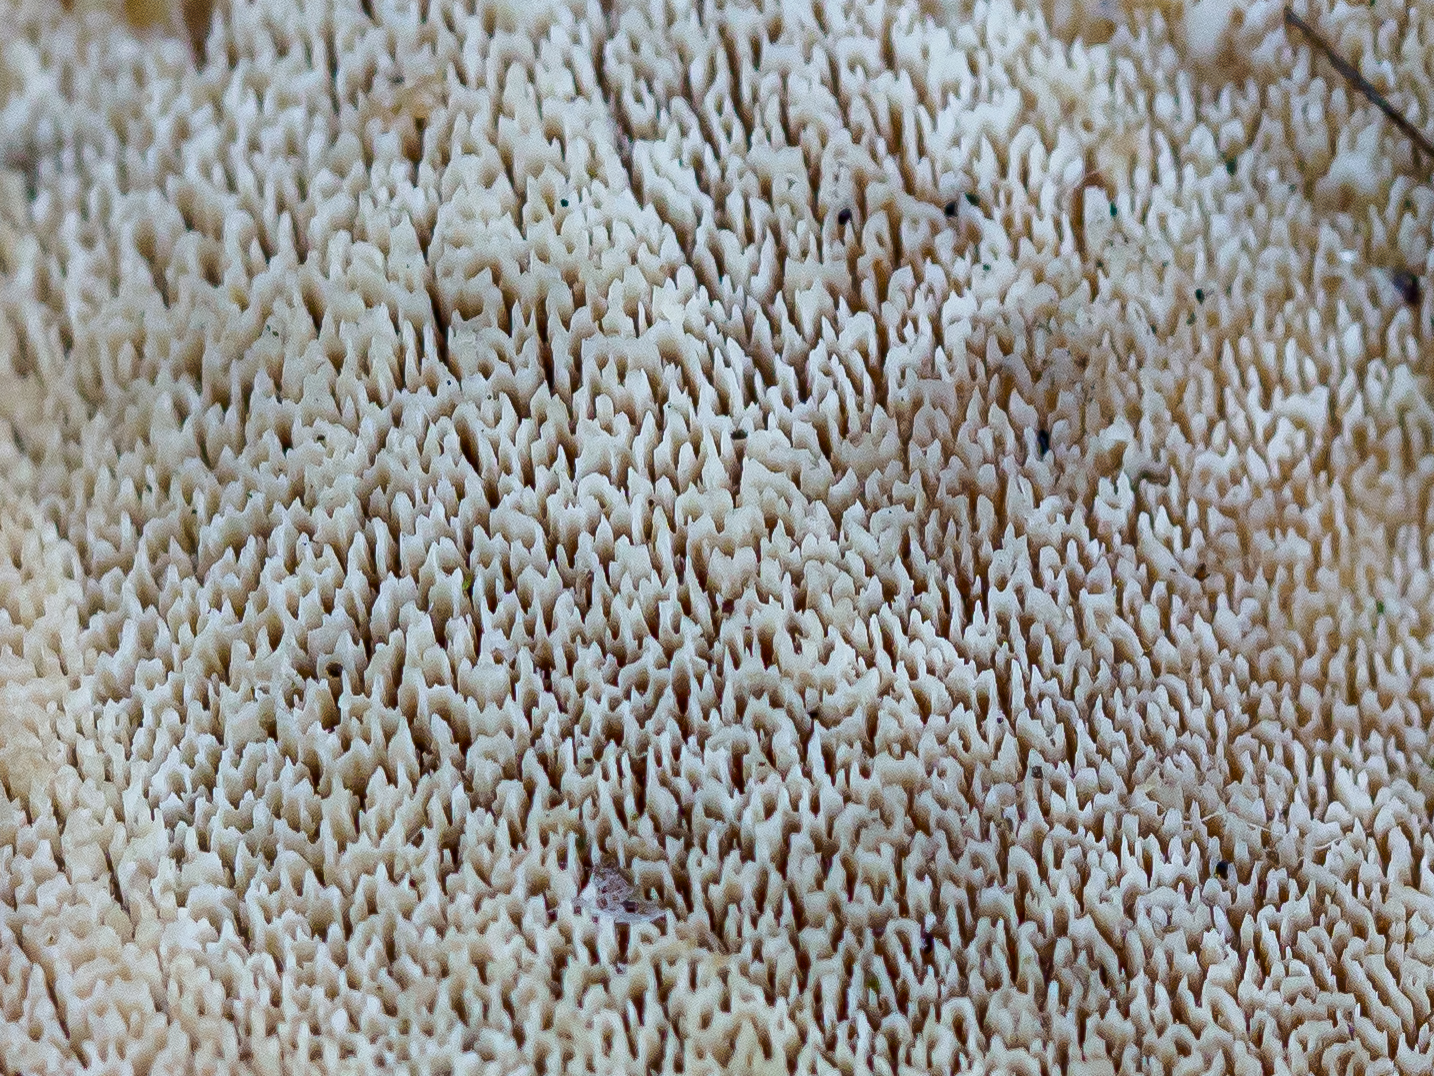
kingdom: Fungi
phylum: Basidiomycota
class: Agaricomycetes
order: Hymenochaetales
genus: Trichaptum
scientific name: Trichaptum biforme
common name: Violet-toothed polypore
